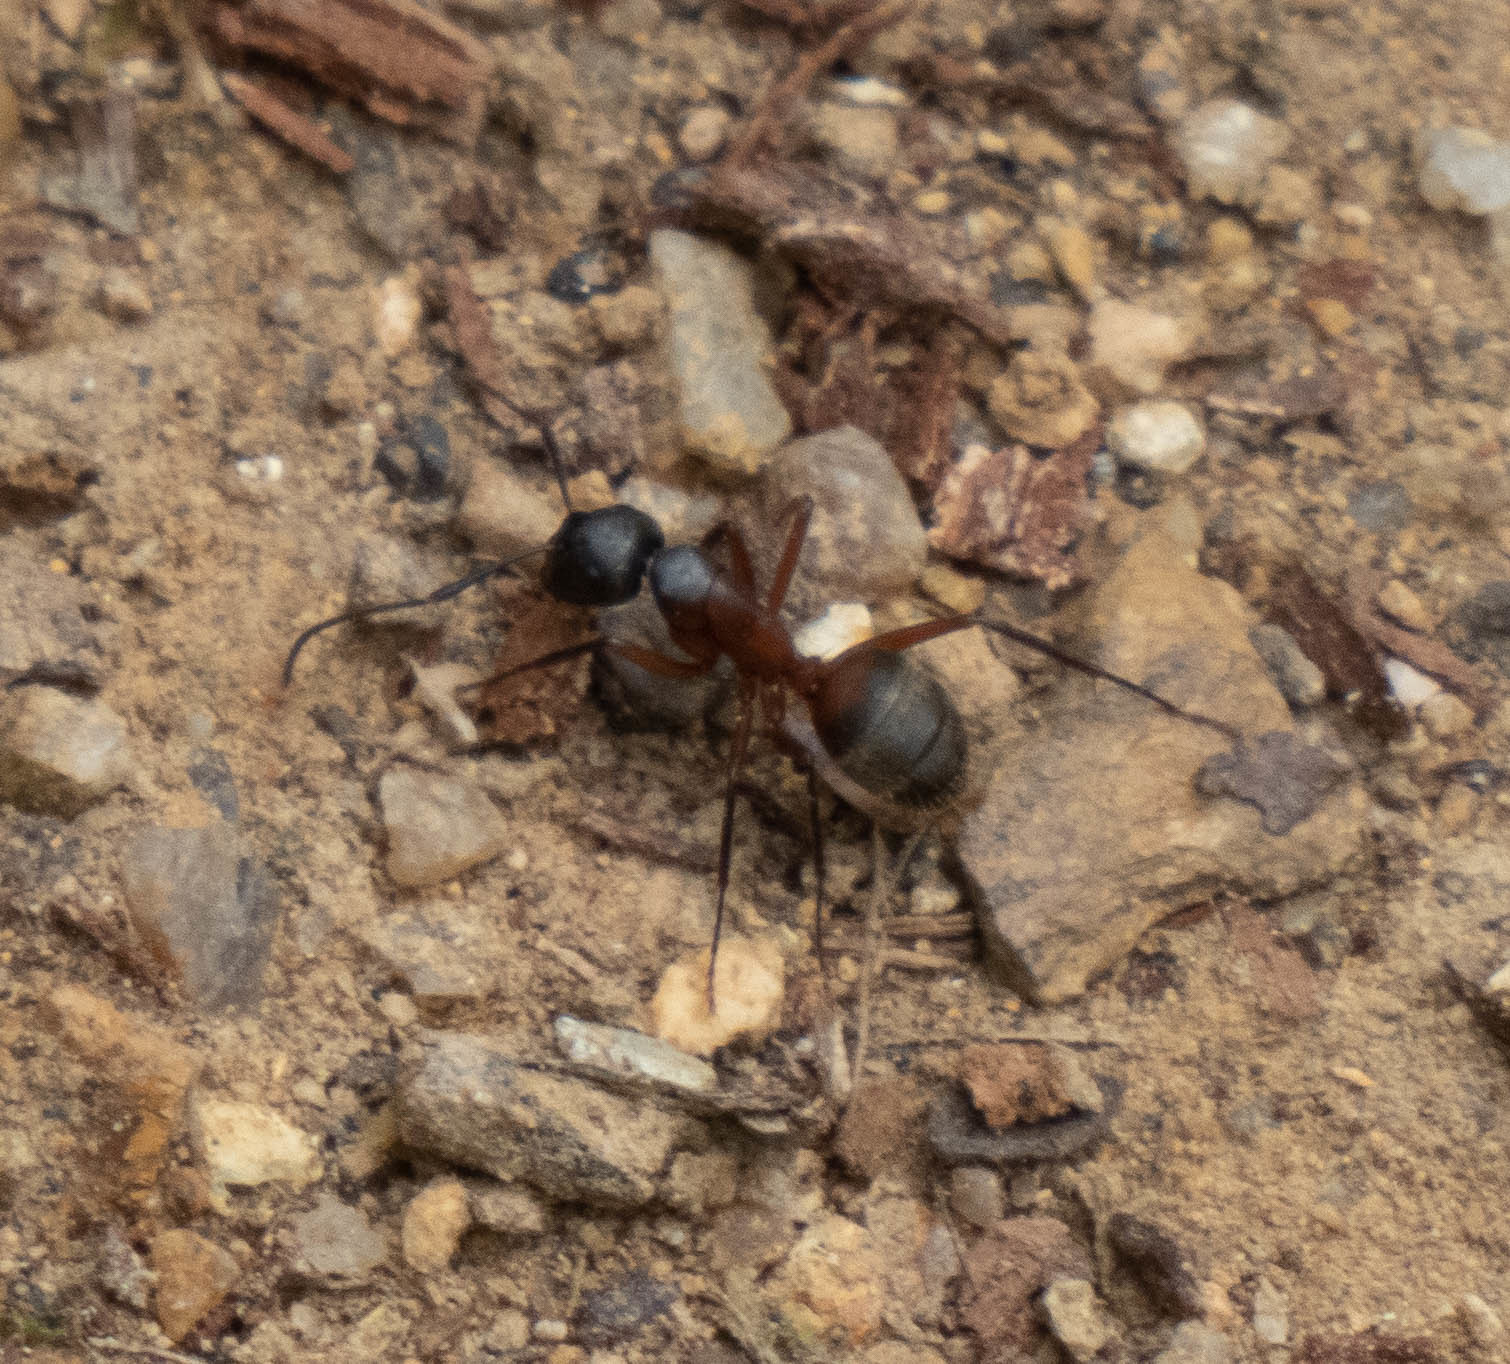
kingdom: Animalia
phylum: Arthropoda
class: Insecta
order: Hymenoptera
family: Formicidae
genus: Camponotus
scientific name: Camponotus chromaiodes
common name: Red carpenter ant
